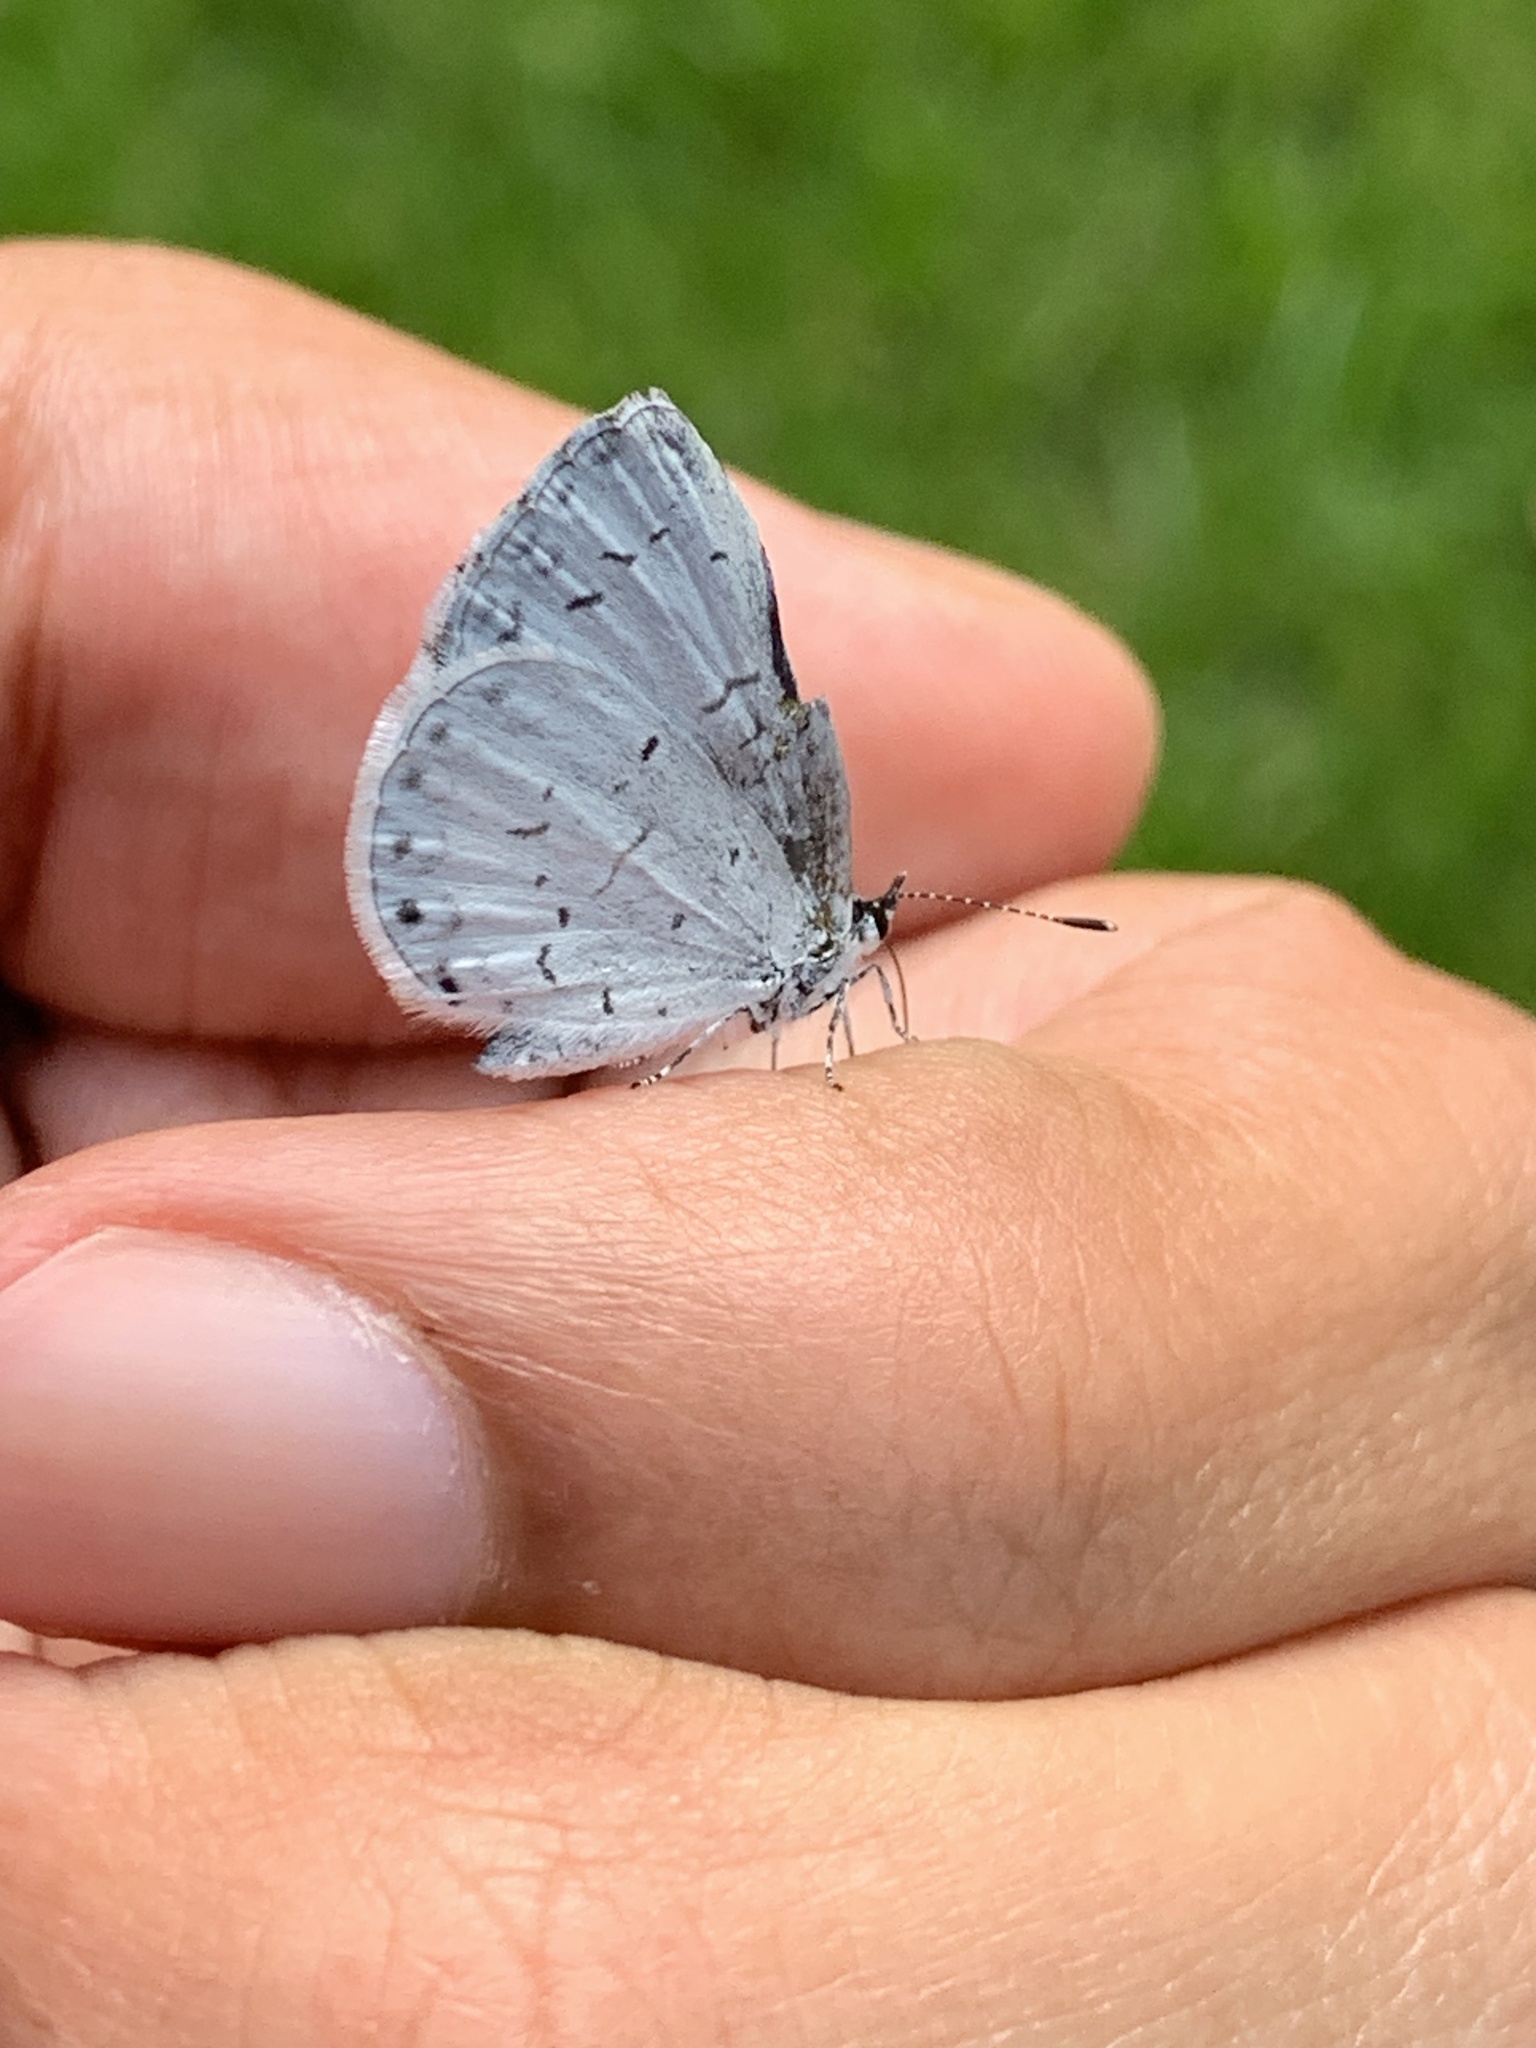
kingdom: Animalia
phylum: Arthropoda
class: Insecta
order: Lepidoptera
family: Lycaenidae
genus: Cyaniris
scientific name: Cyaniris neglecta
